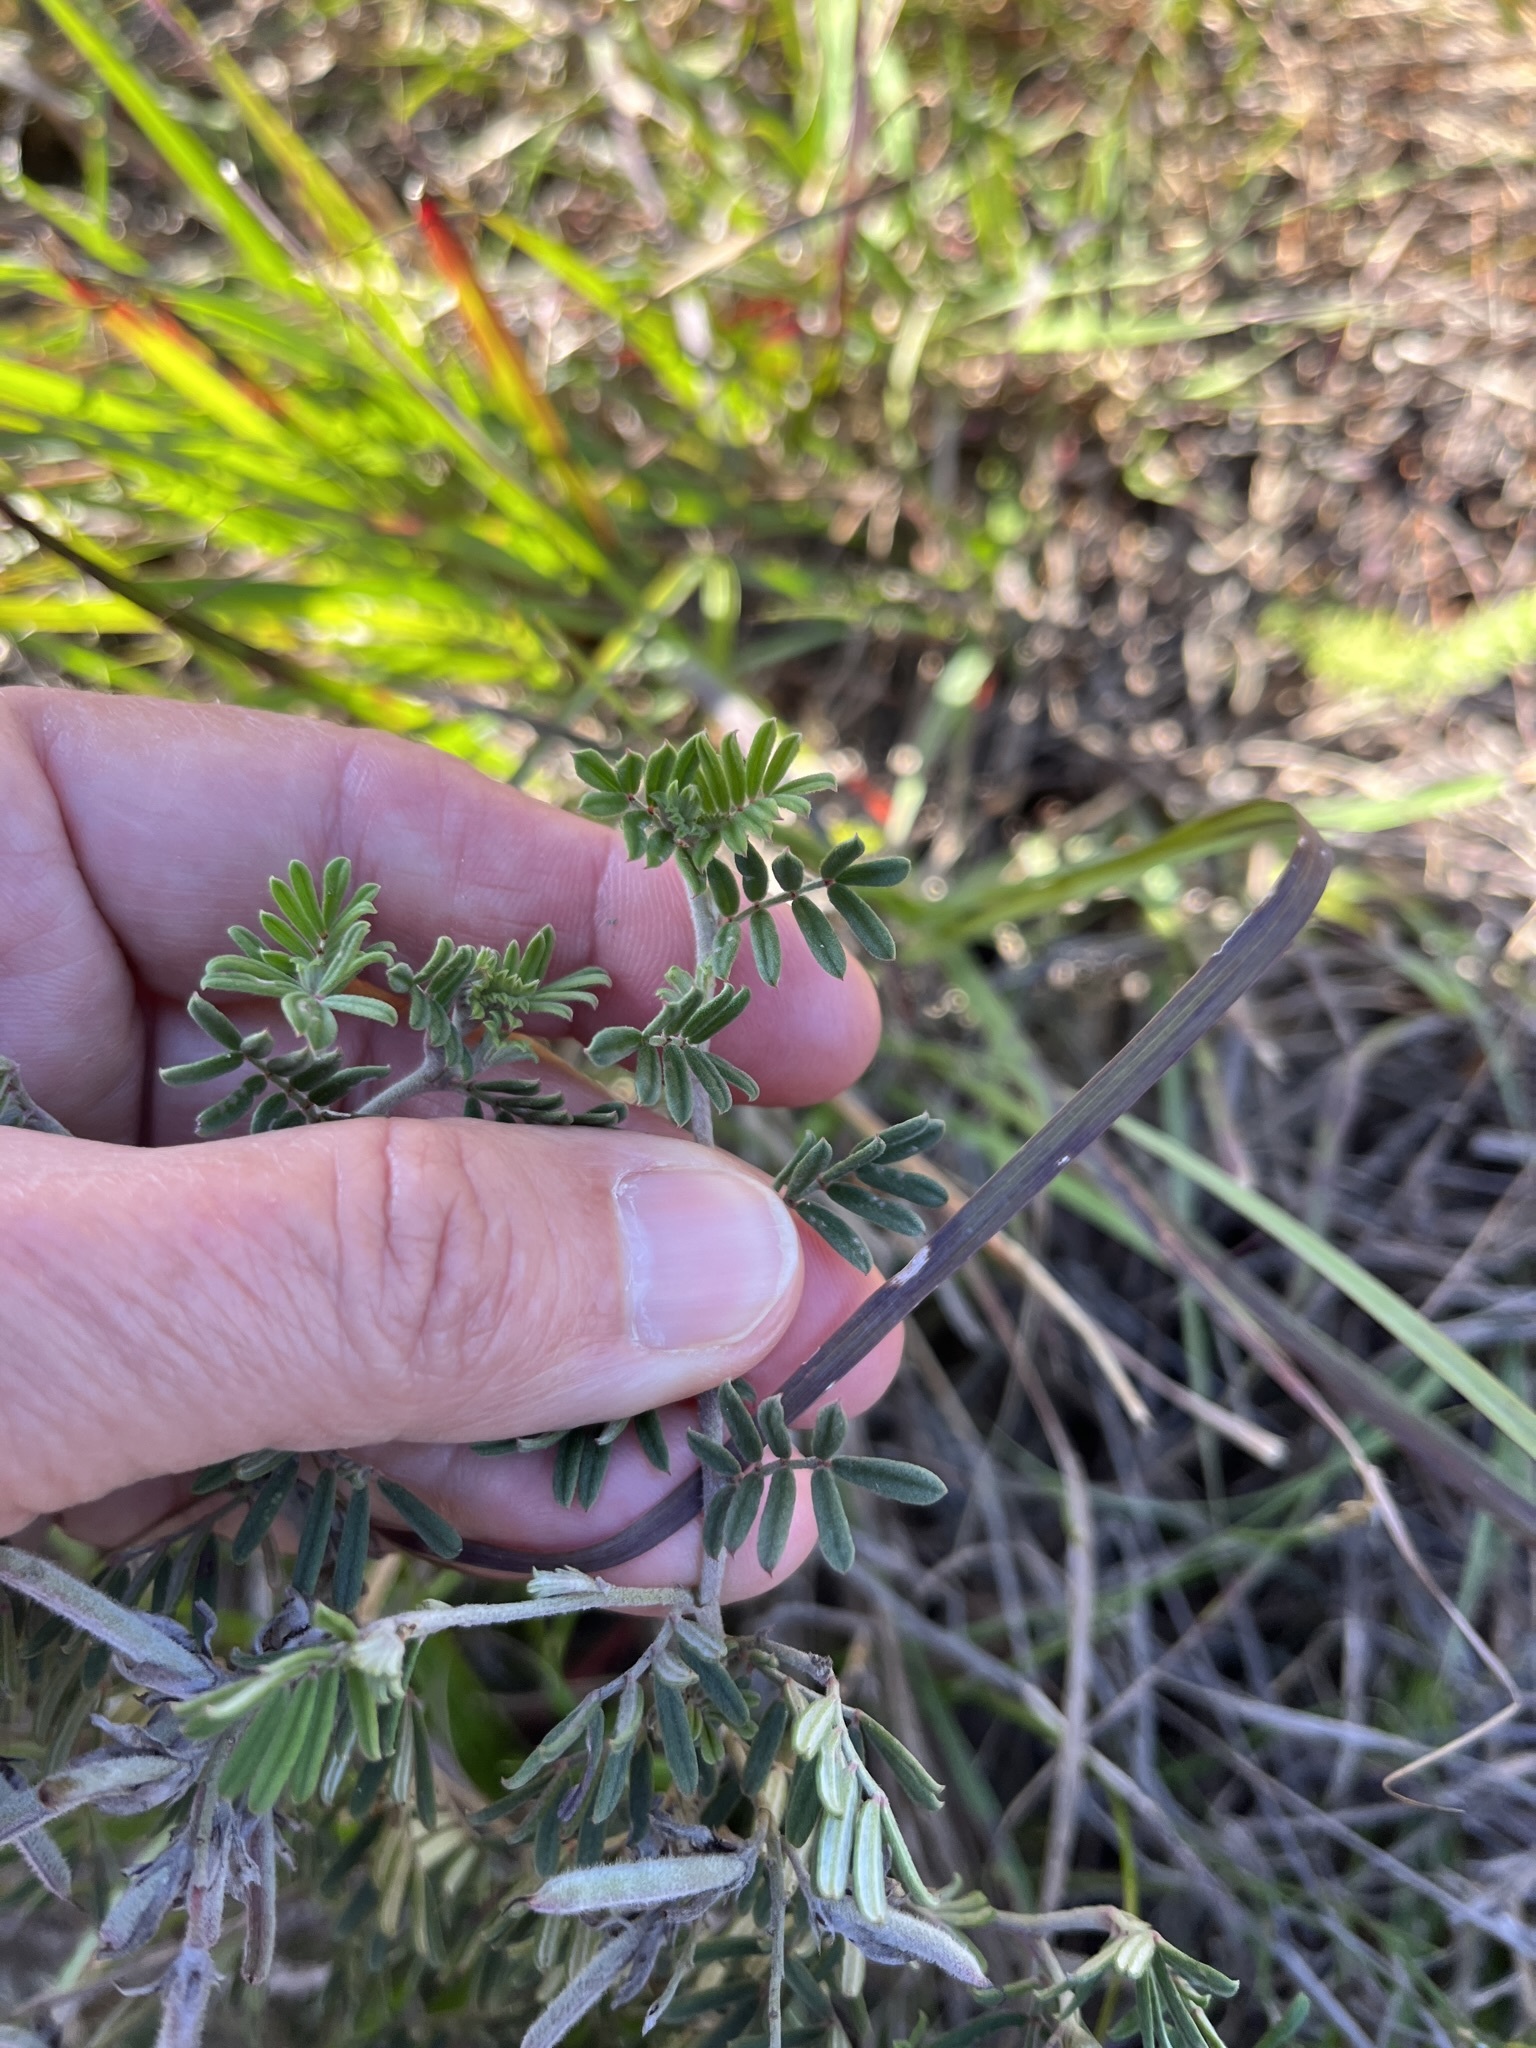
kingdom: Plantae
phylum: Tracheophyta
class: Magnoliopsida
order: Fabales
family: Fabaceae
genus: Microcharis
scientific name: Microcharis praetermissa
